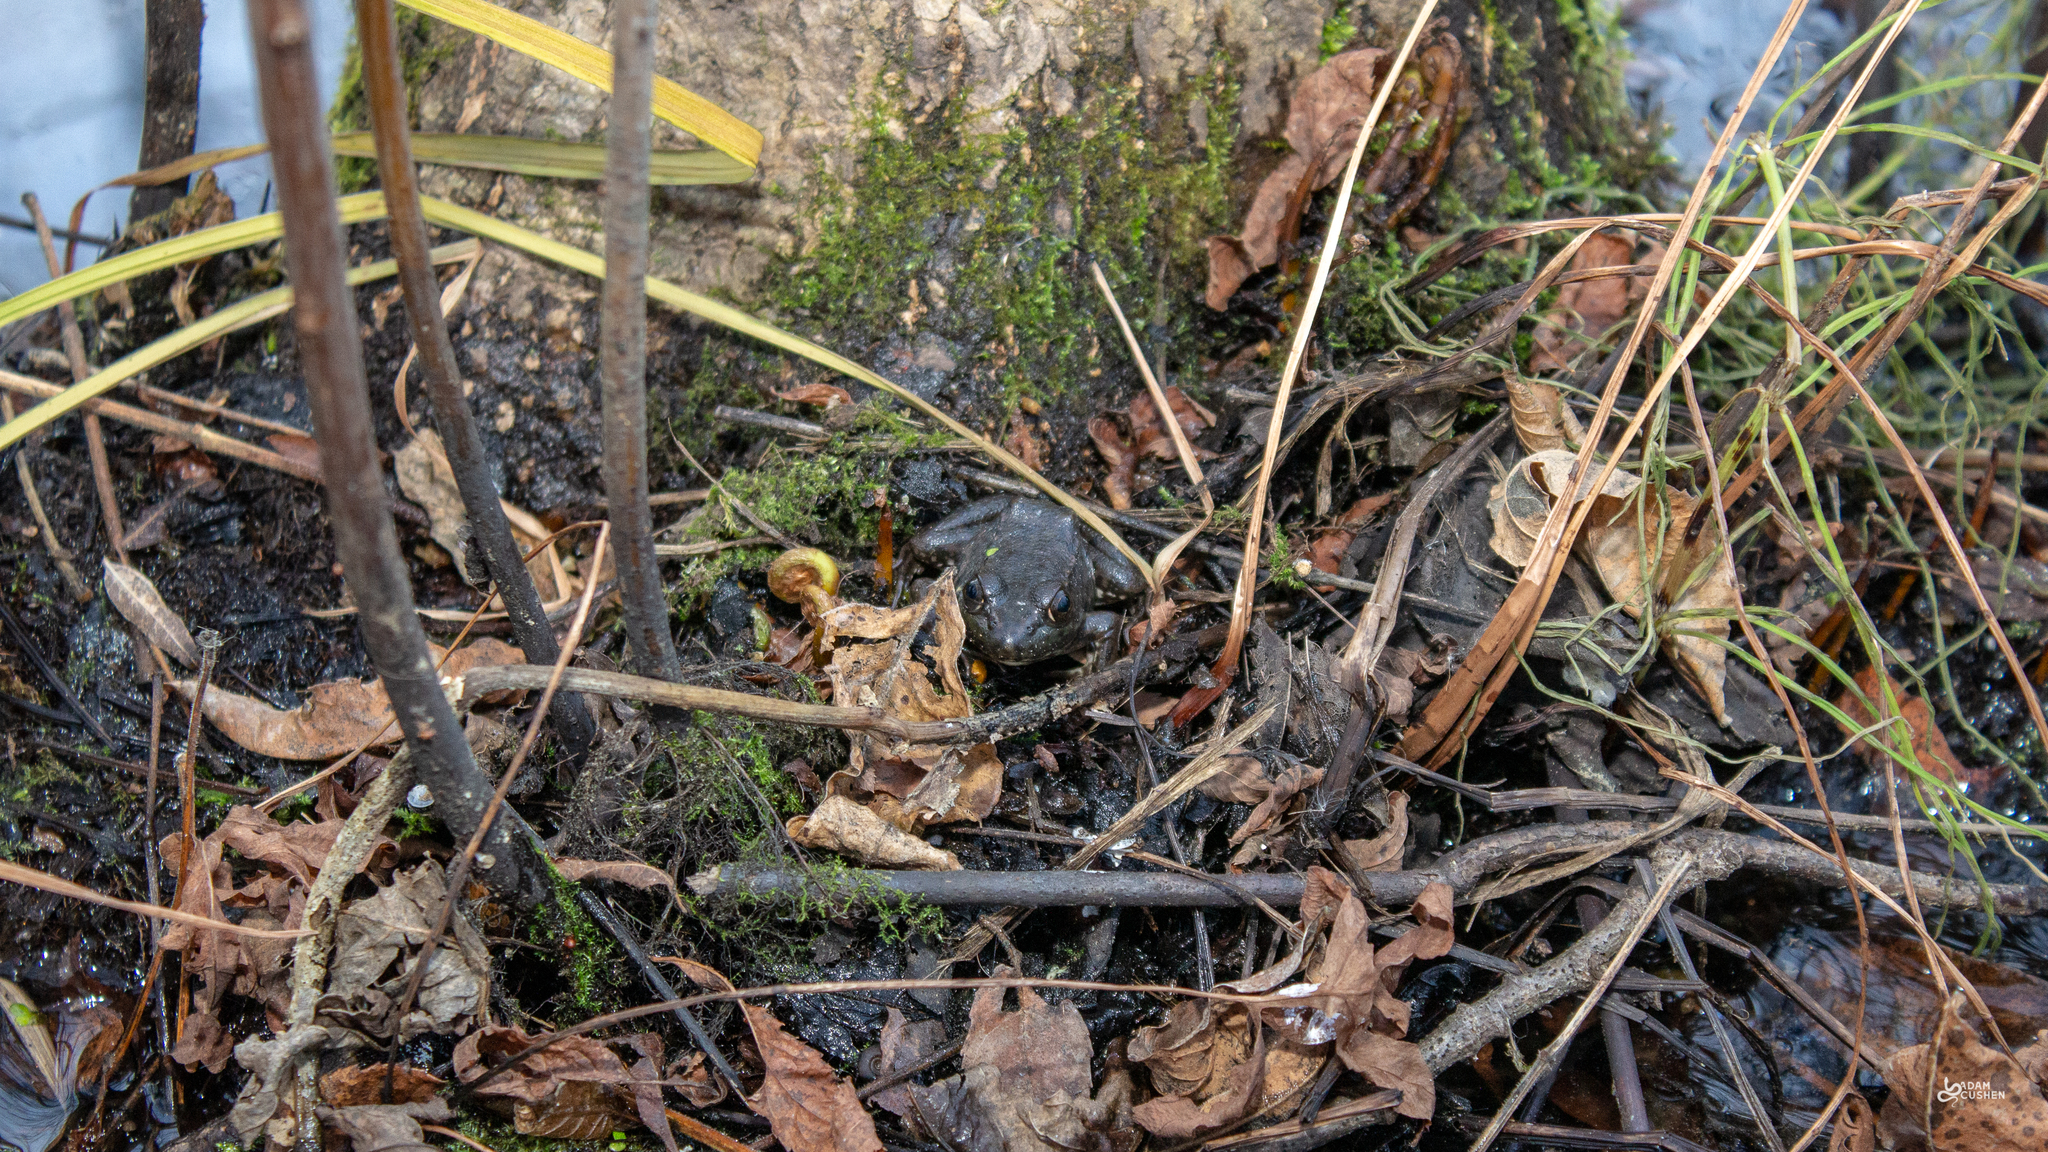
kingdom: Animalia
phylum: Chordata
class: Amphibia
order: Anura
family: Ranidae
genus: Lithobates
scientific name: Lithobates clamitans
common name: Green frog
